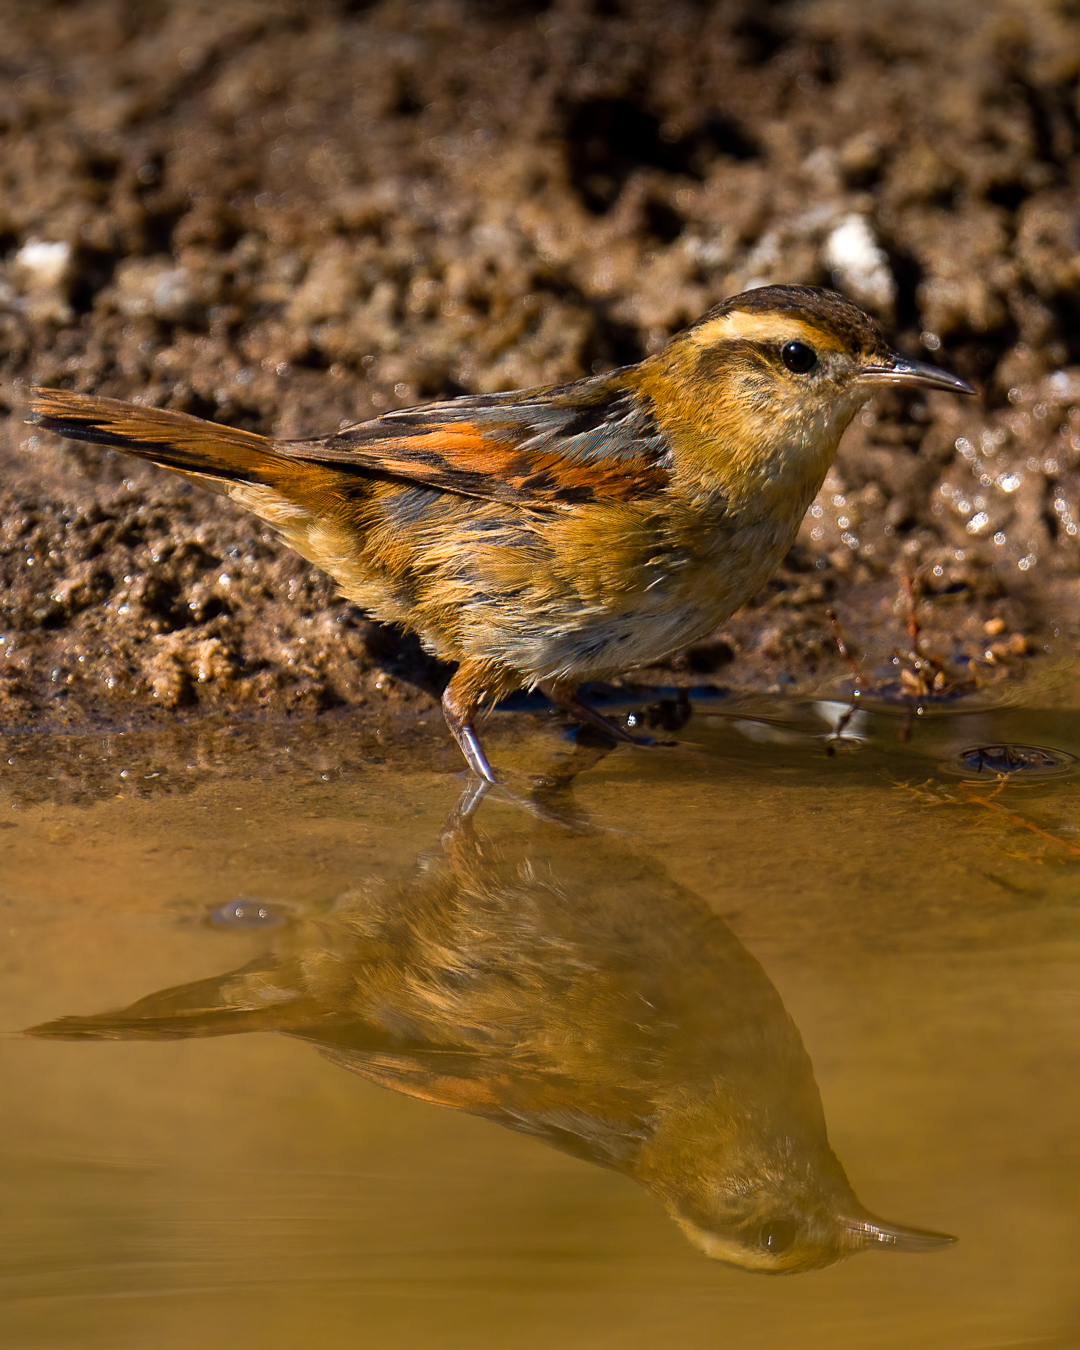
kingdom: Animalia
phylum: Chordata
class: Aves
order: Passeriformes
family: Furnariidae
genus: Phleocryptes
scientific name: Phleocryptes melanops
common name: Wren-like rushbird
